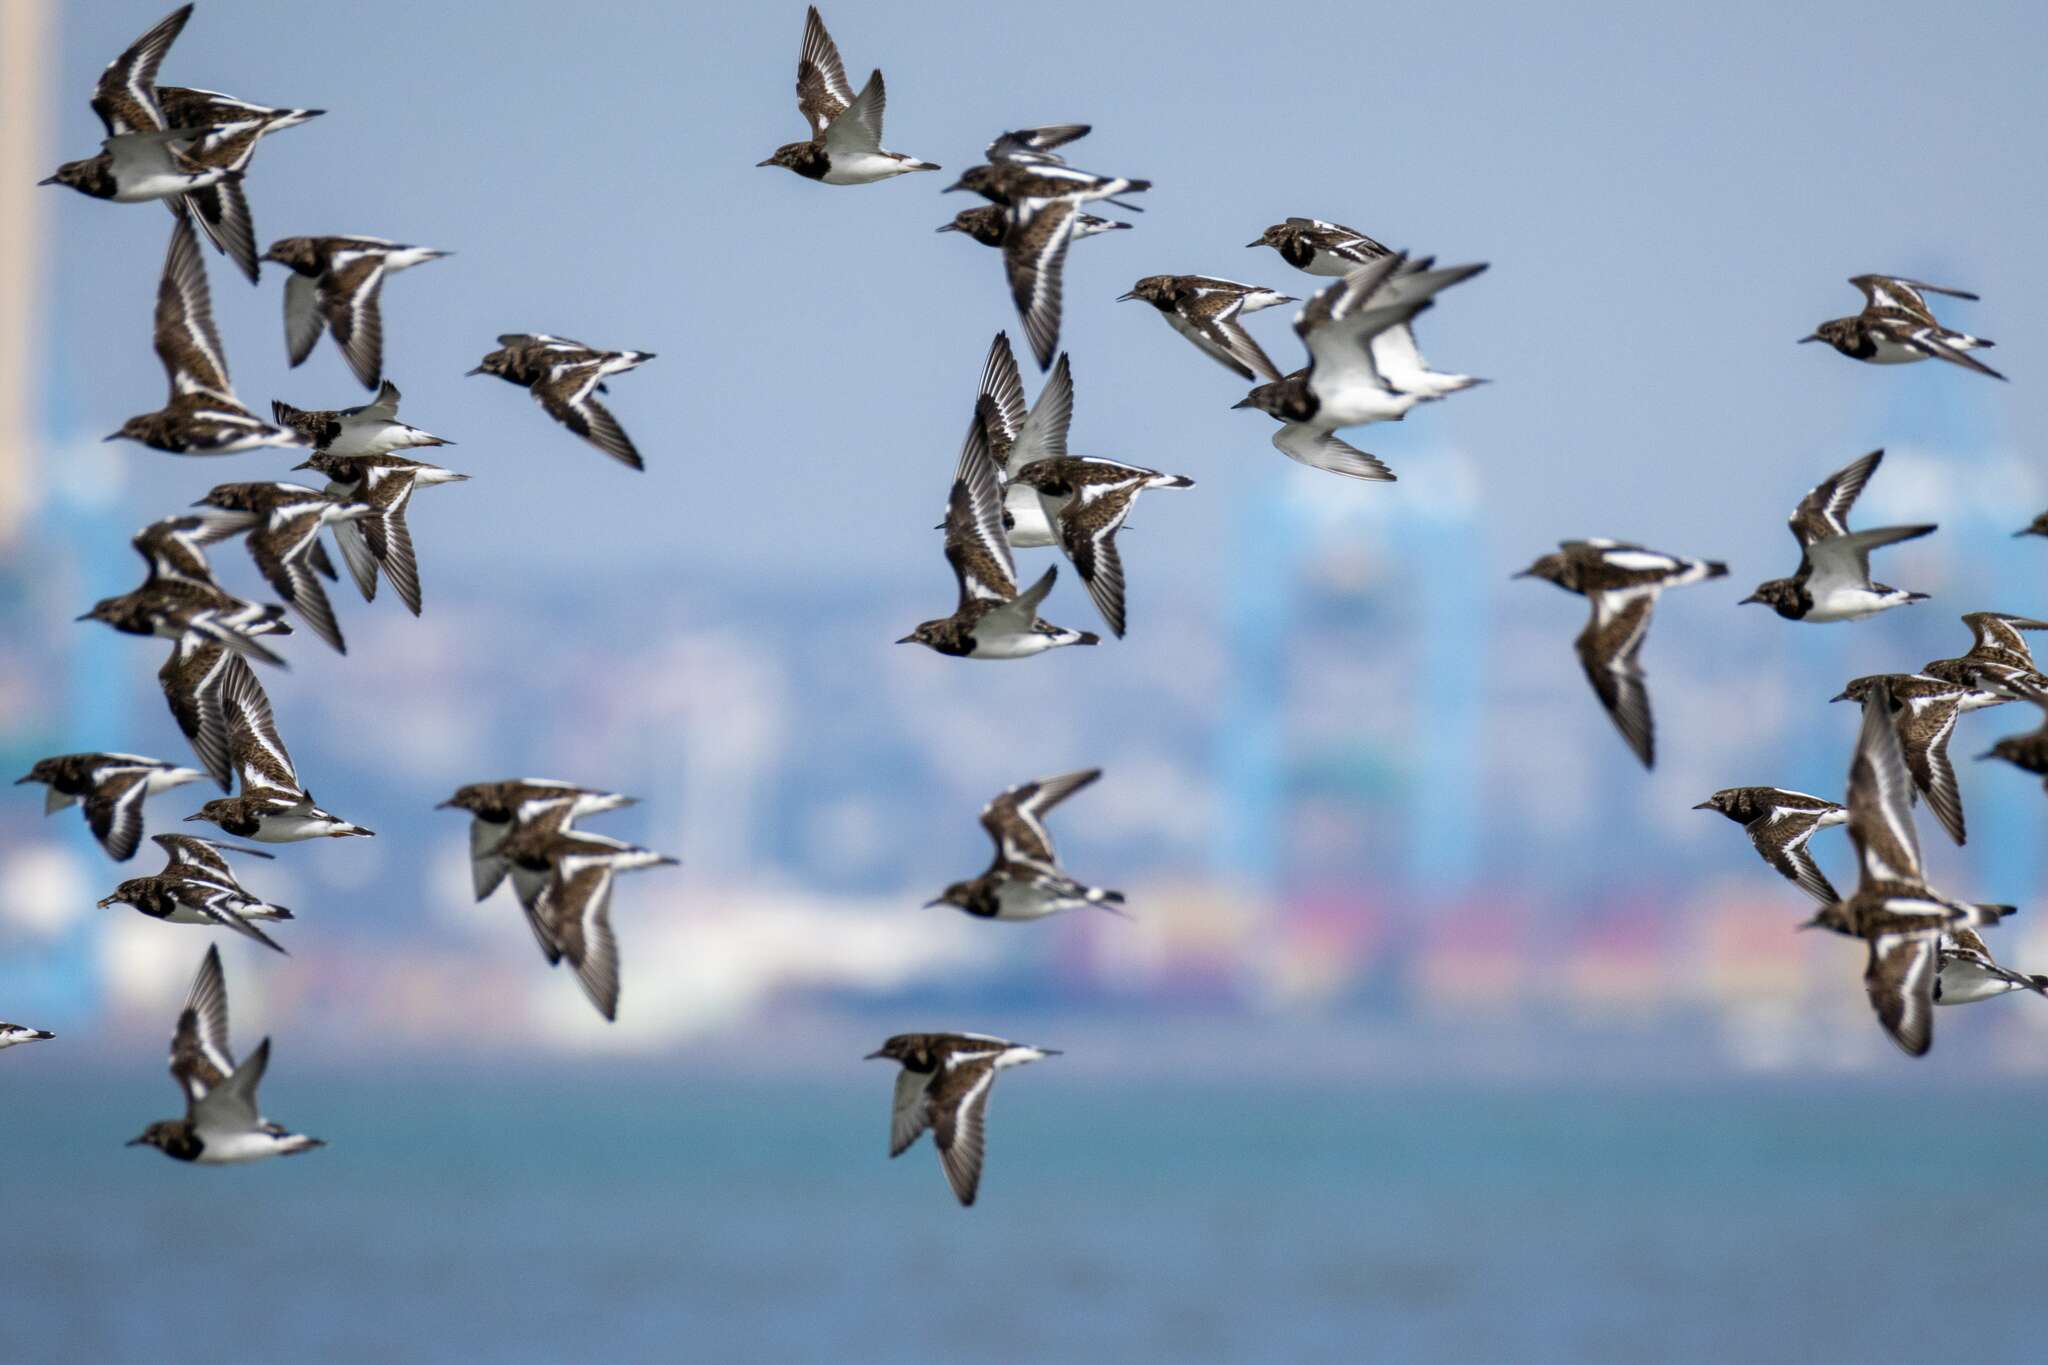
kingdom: Animalia
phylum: Chordata
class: Aves
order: Charadriiformes
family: Scolopacidae
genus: Arenaria
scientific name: Arenaria interpres
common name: Ruddy turnstone
